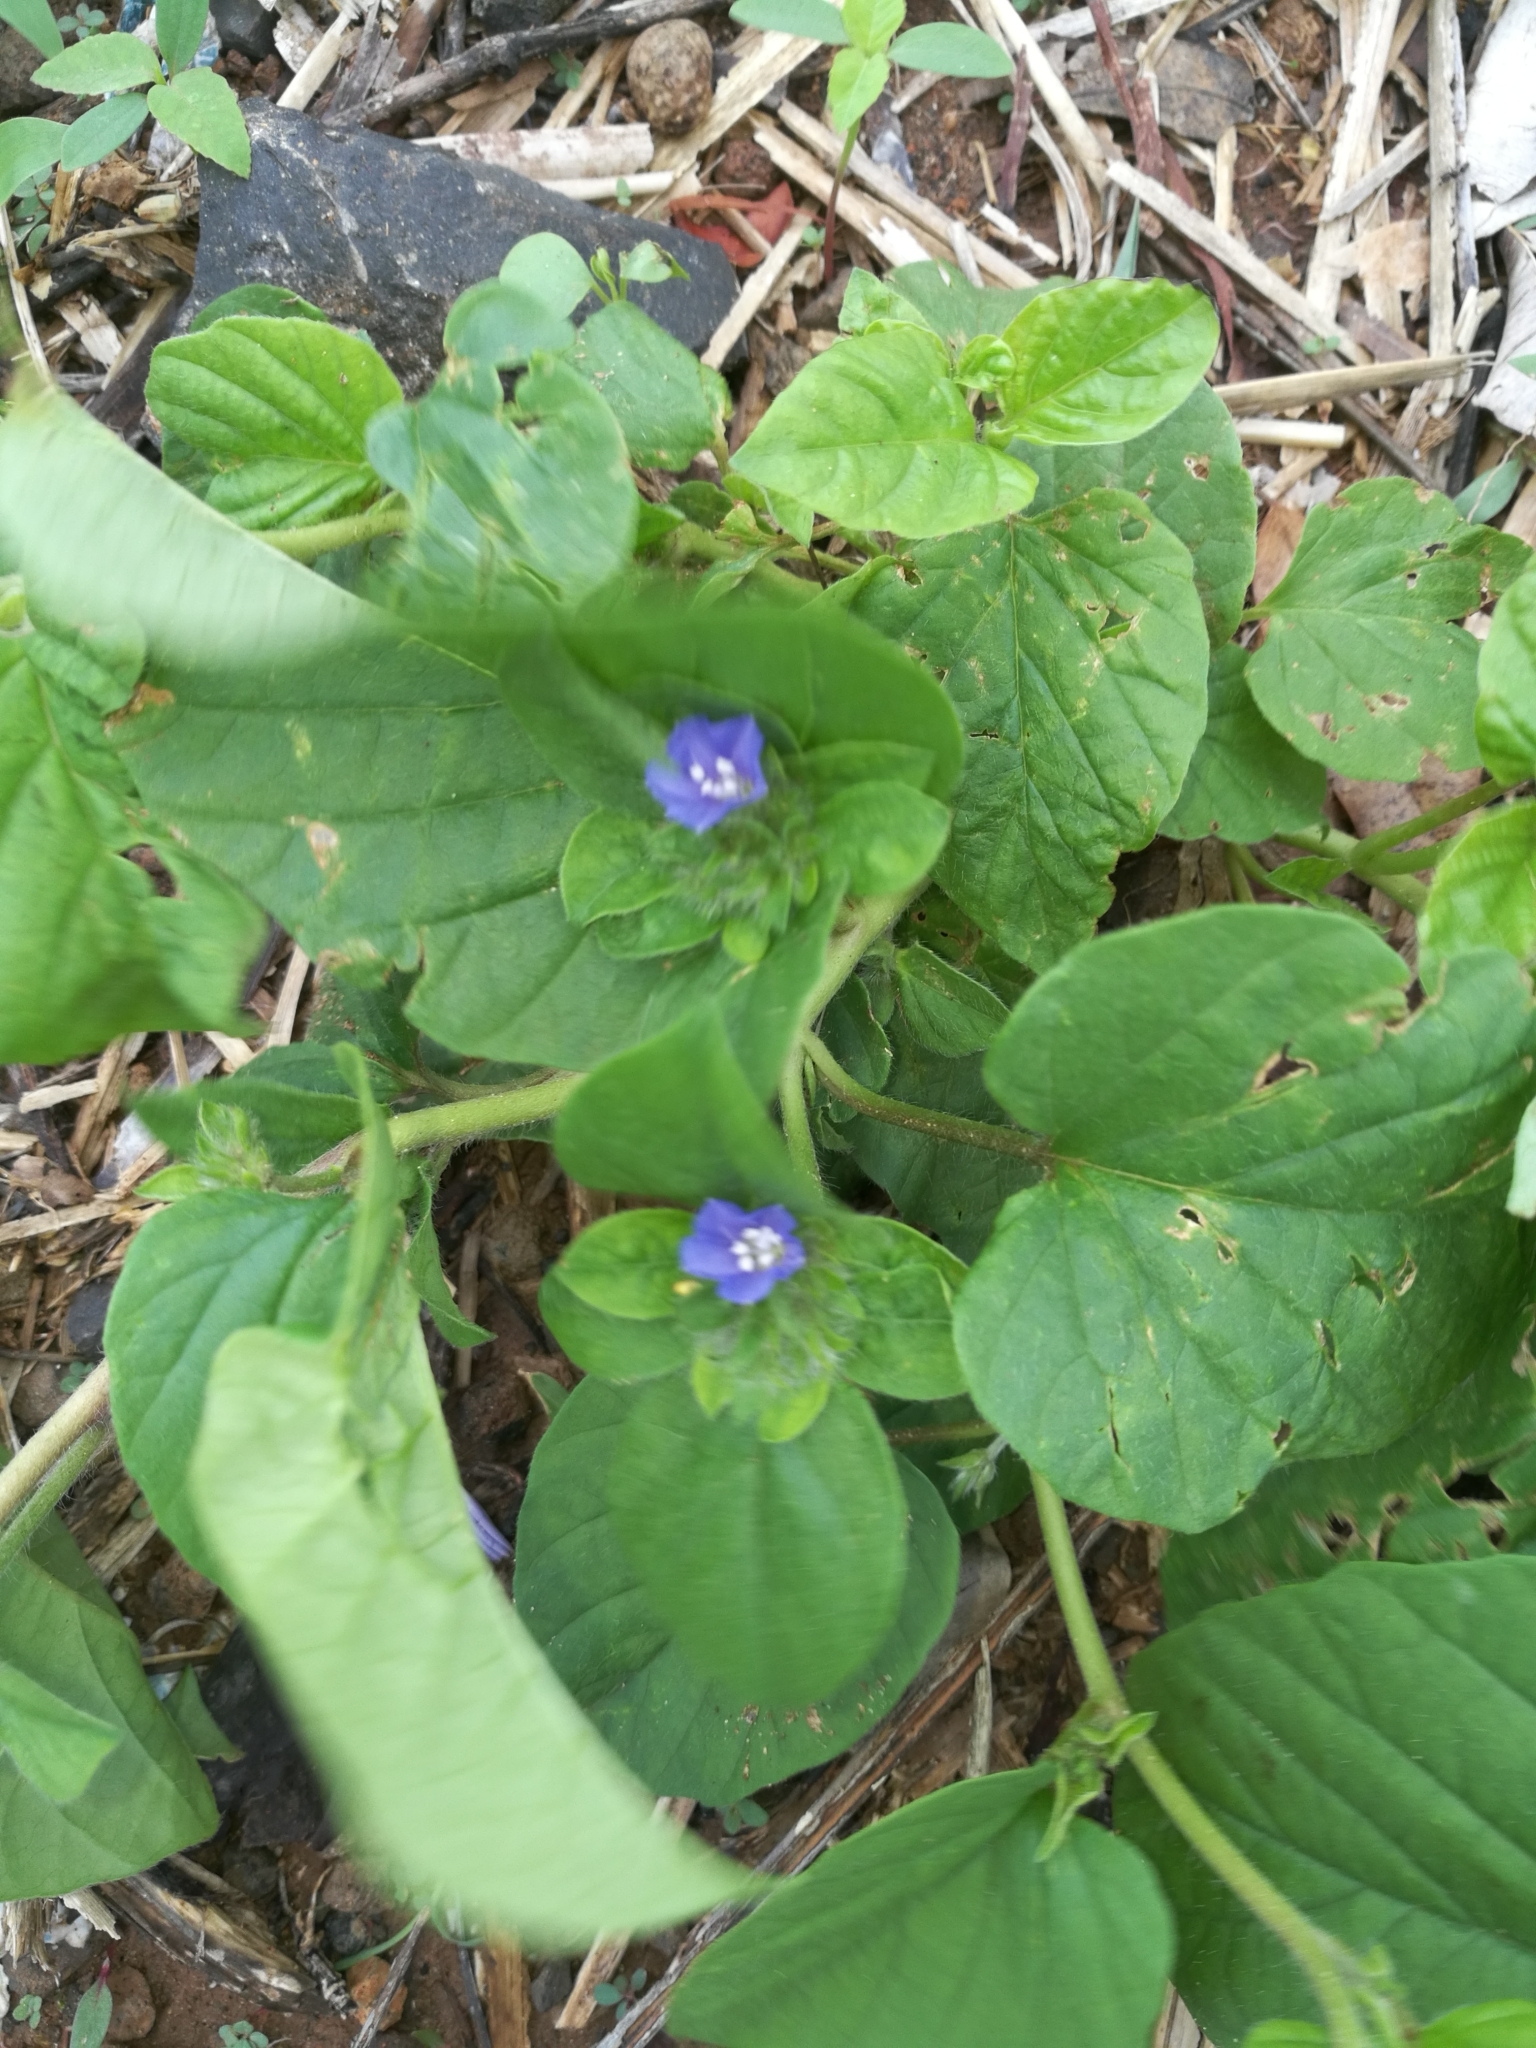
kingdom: Plantae
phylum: Tracheophyta
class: Magnoliopsida
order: Solanales
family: Convolvulaceae
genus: Jacquemontia
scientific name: Jacquemontia tamnifolia
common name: Hairy clustervine
